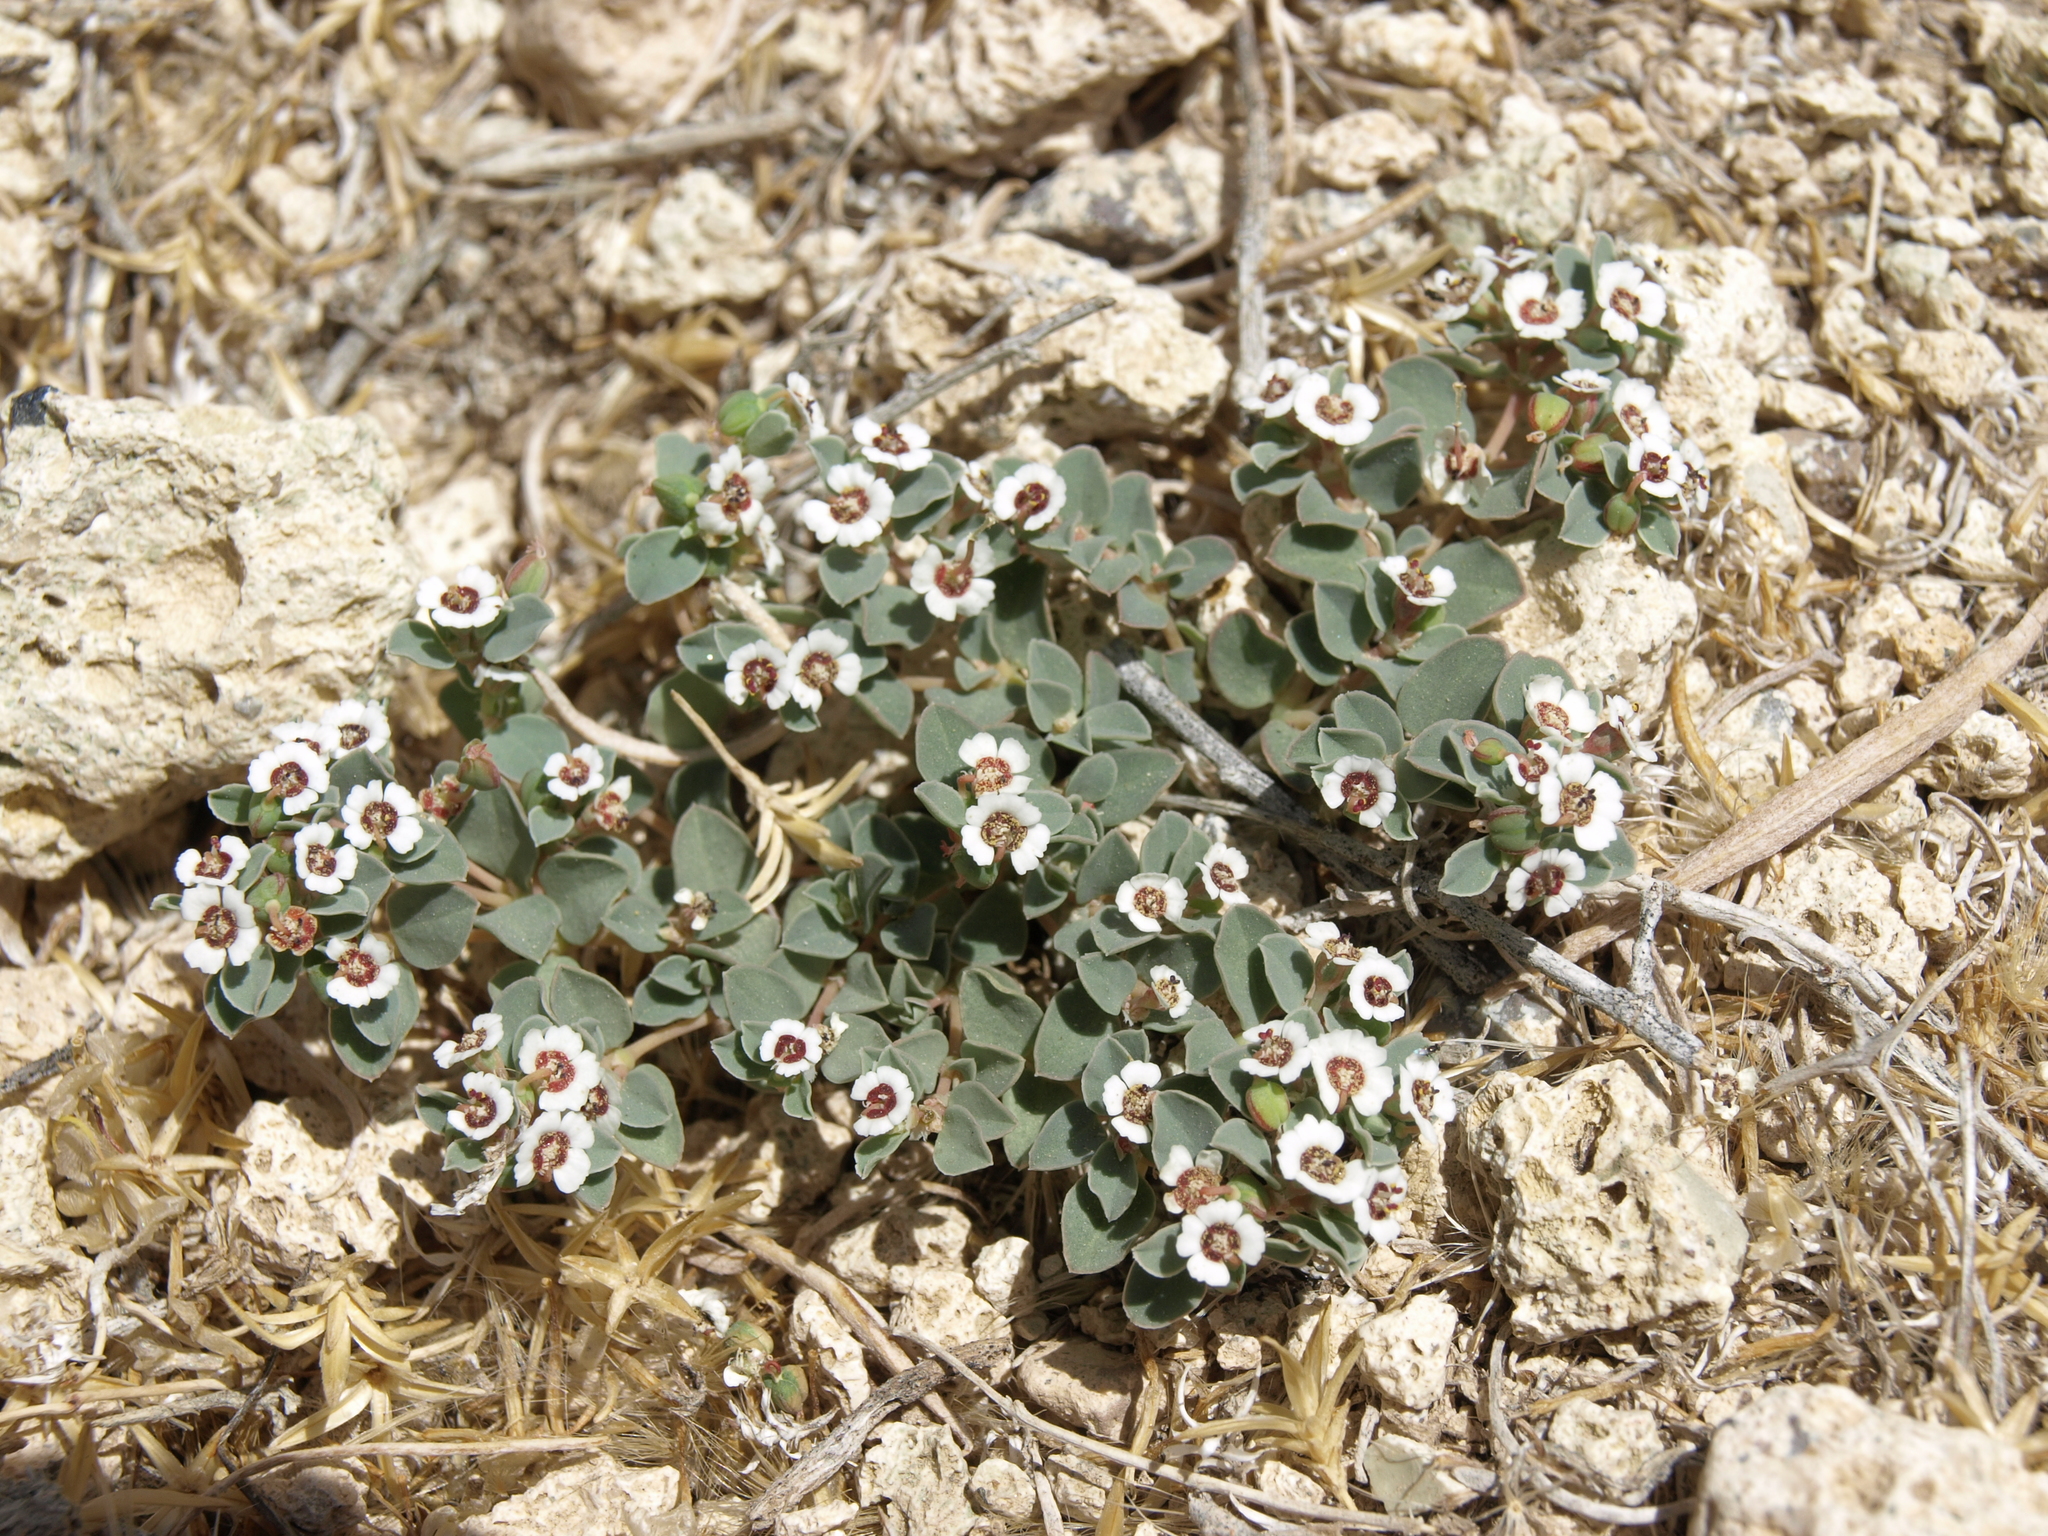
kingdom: Plantae
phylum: Tracheophyta
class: Magnoliopsida
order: Malpighiales
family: Euphorbiaceae
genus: Euphorbia
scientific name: Euphorbia albomarginata
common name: Whitemargin sandmat
